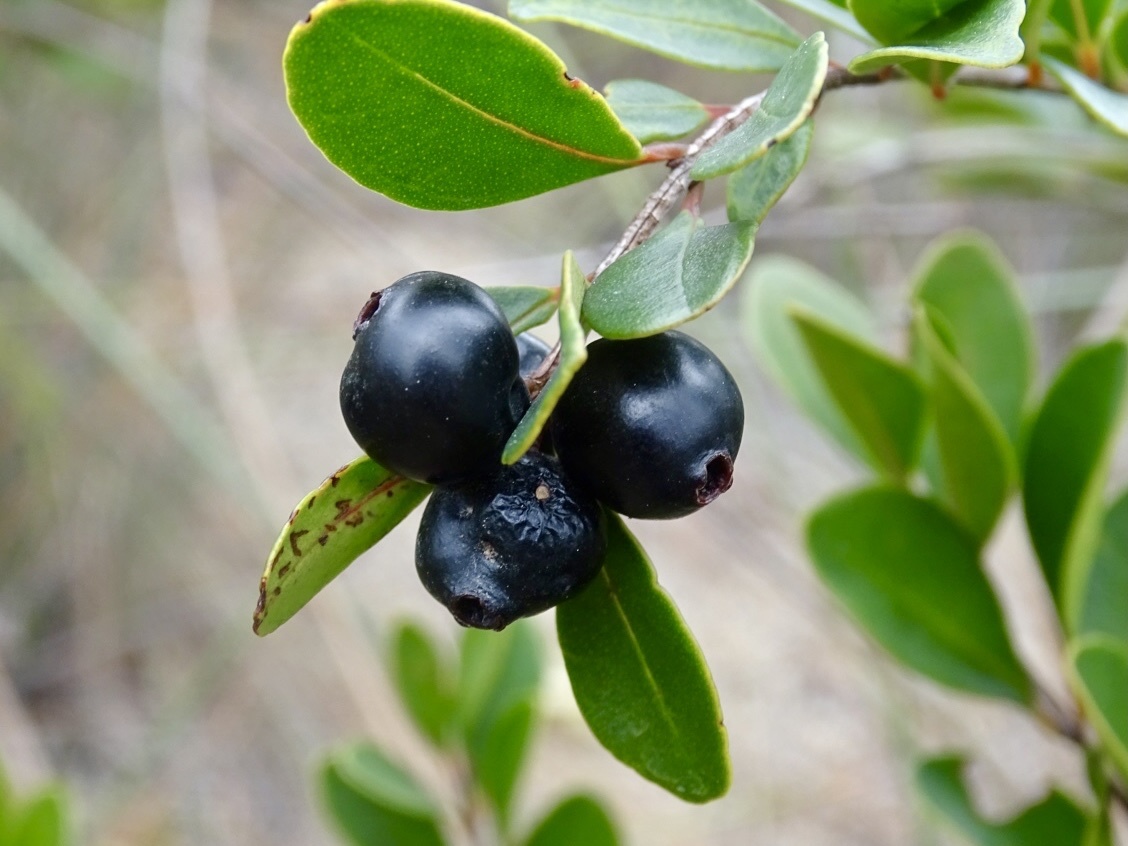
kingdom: Plantae
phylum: Tracheophyta
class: Magnoliopsida
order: Myrtales
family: Myrtaceae
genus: Syzygium
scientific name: Syzygium buxifolium
